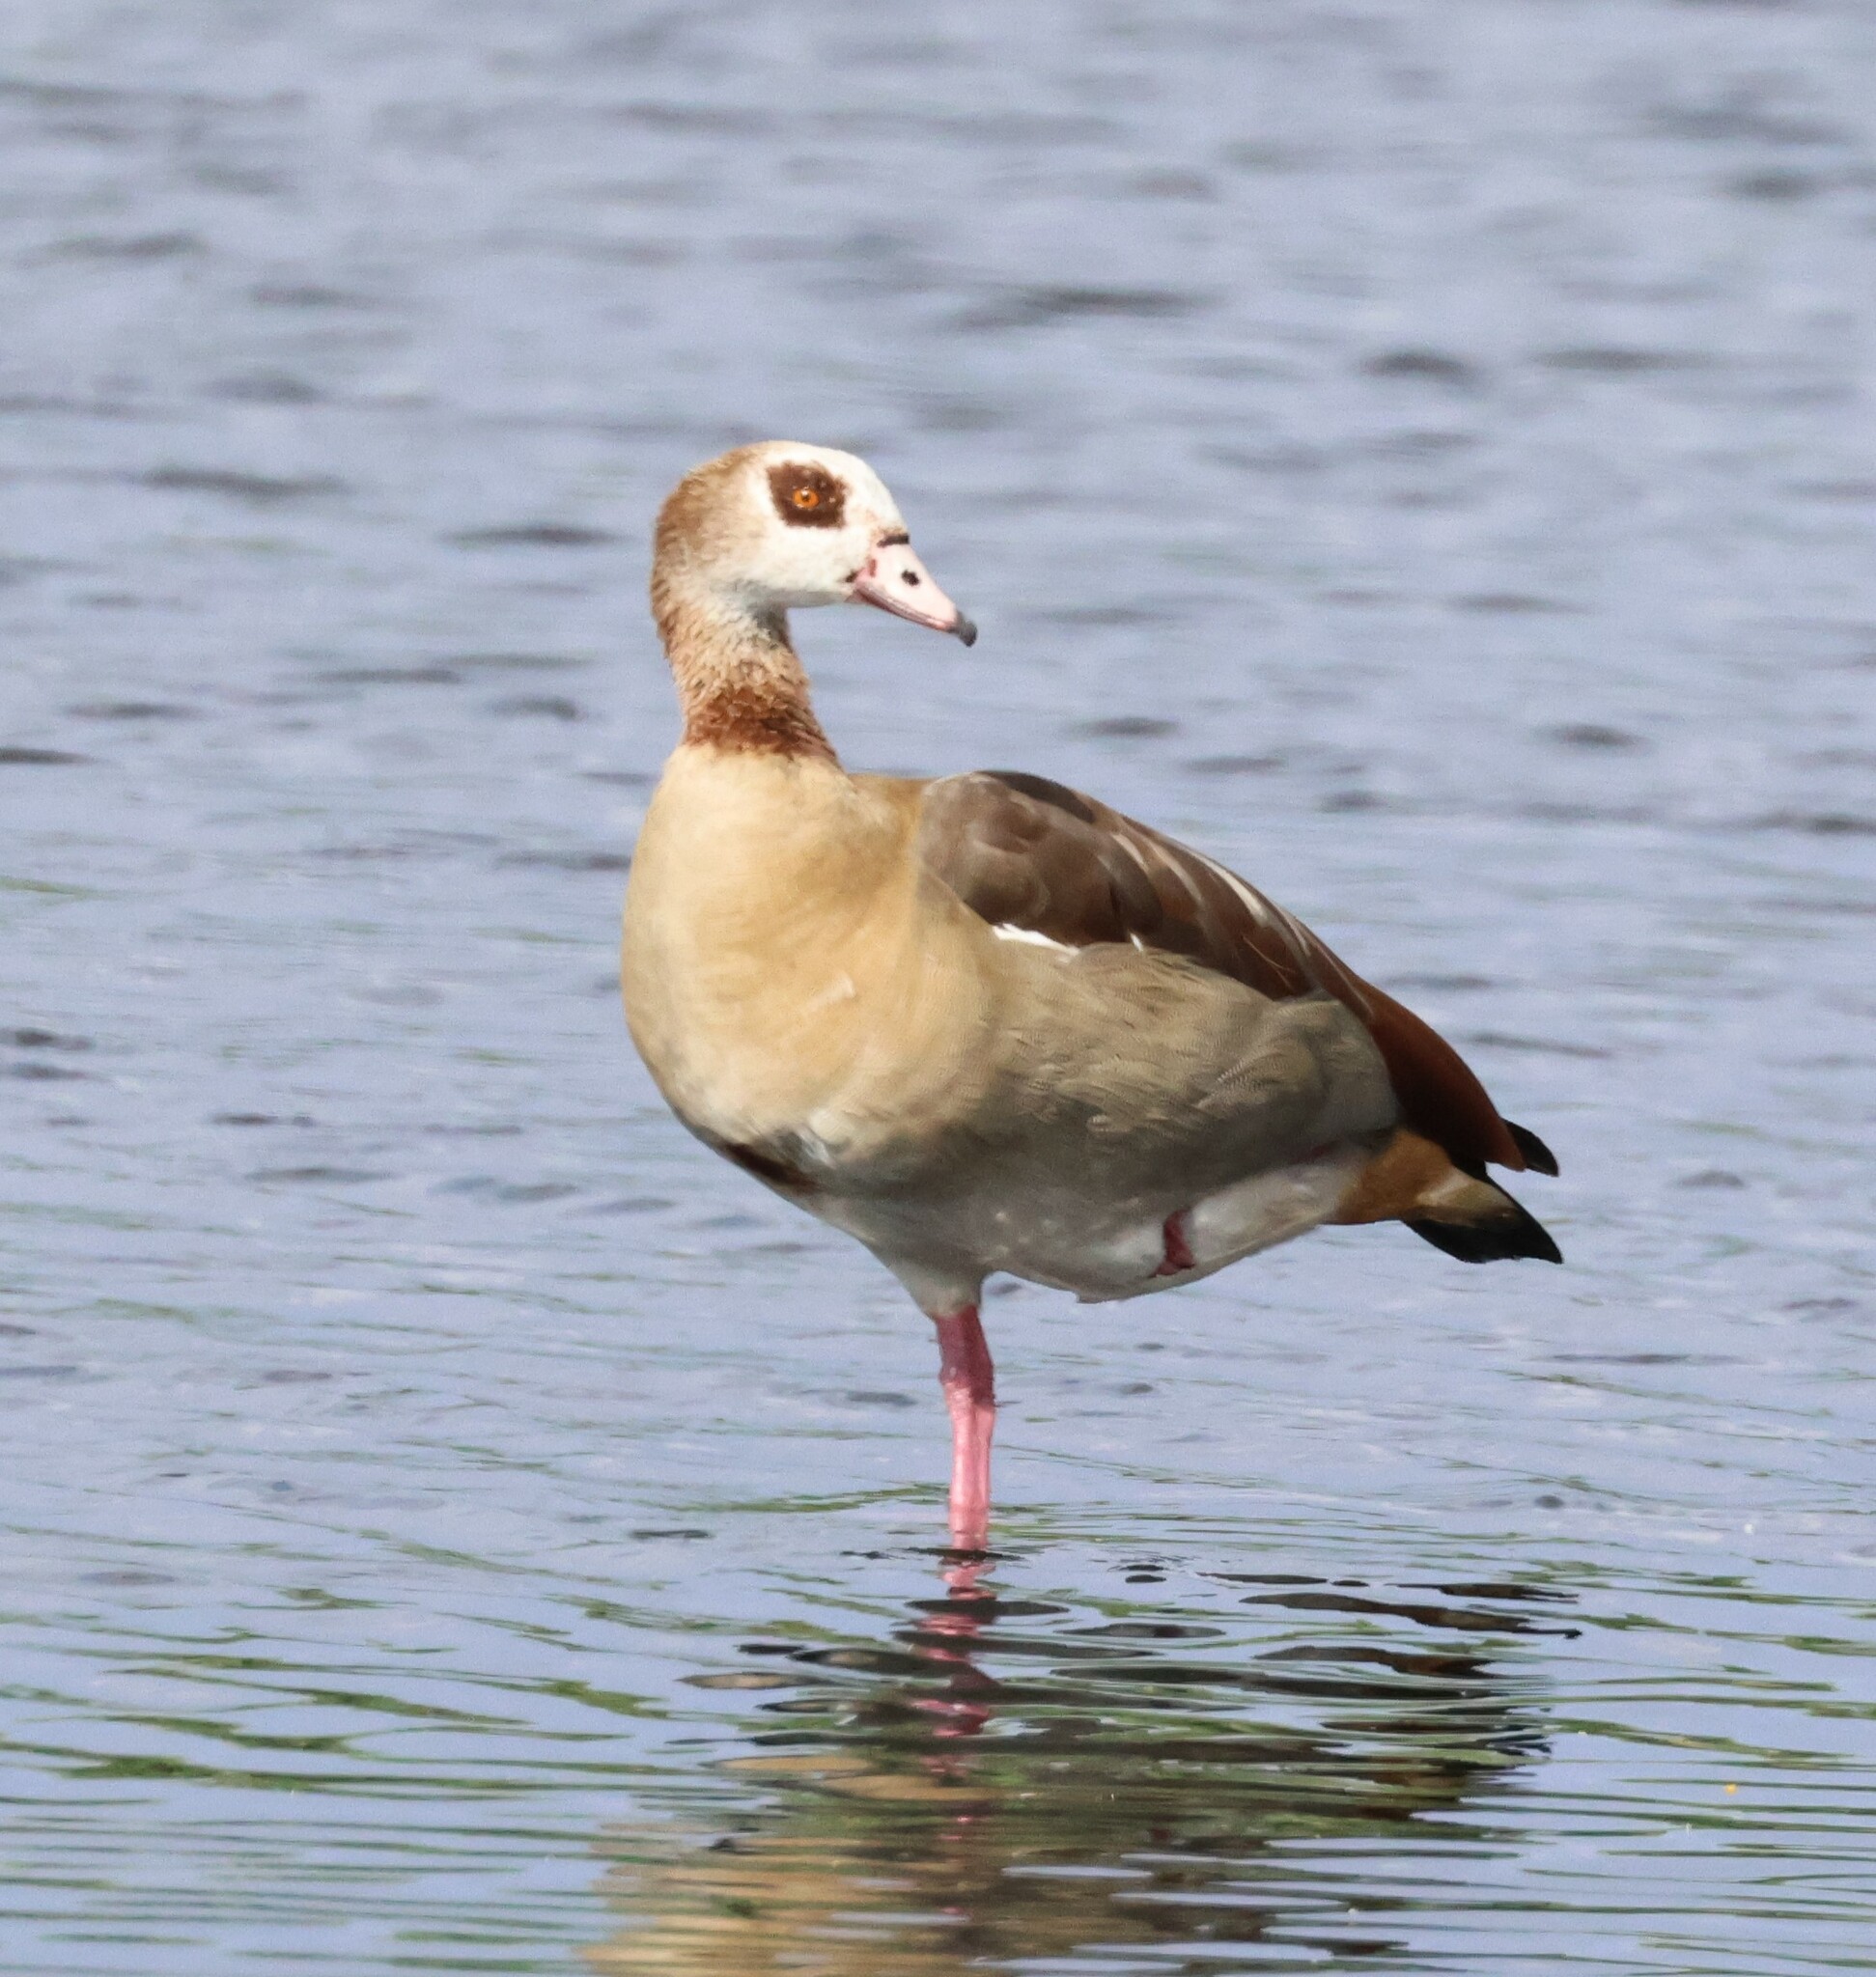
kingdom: Animalia
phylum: Chordata
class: Aves
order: Anseriformes
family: Anatidae
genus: Alopochen
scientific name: Alopochen aegyptiaca
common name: Egyptian goose
